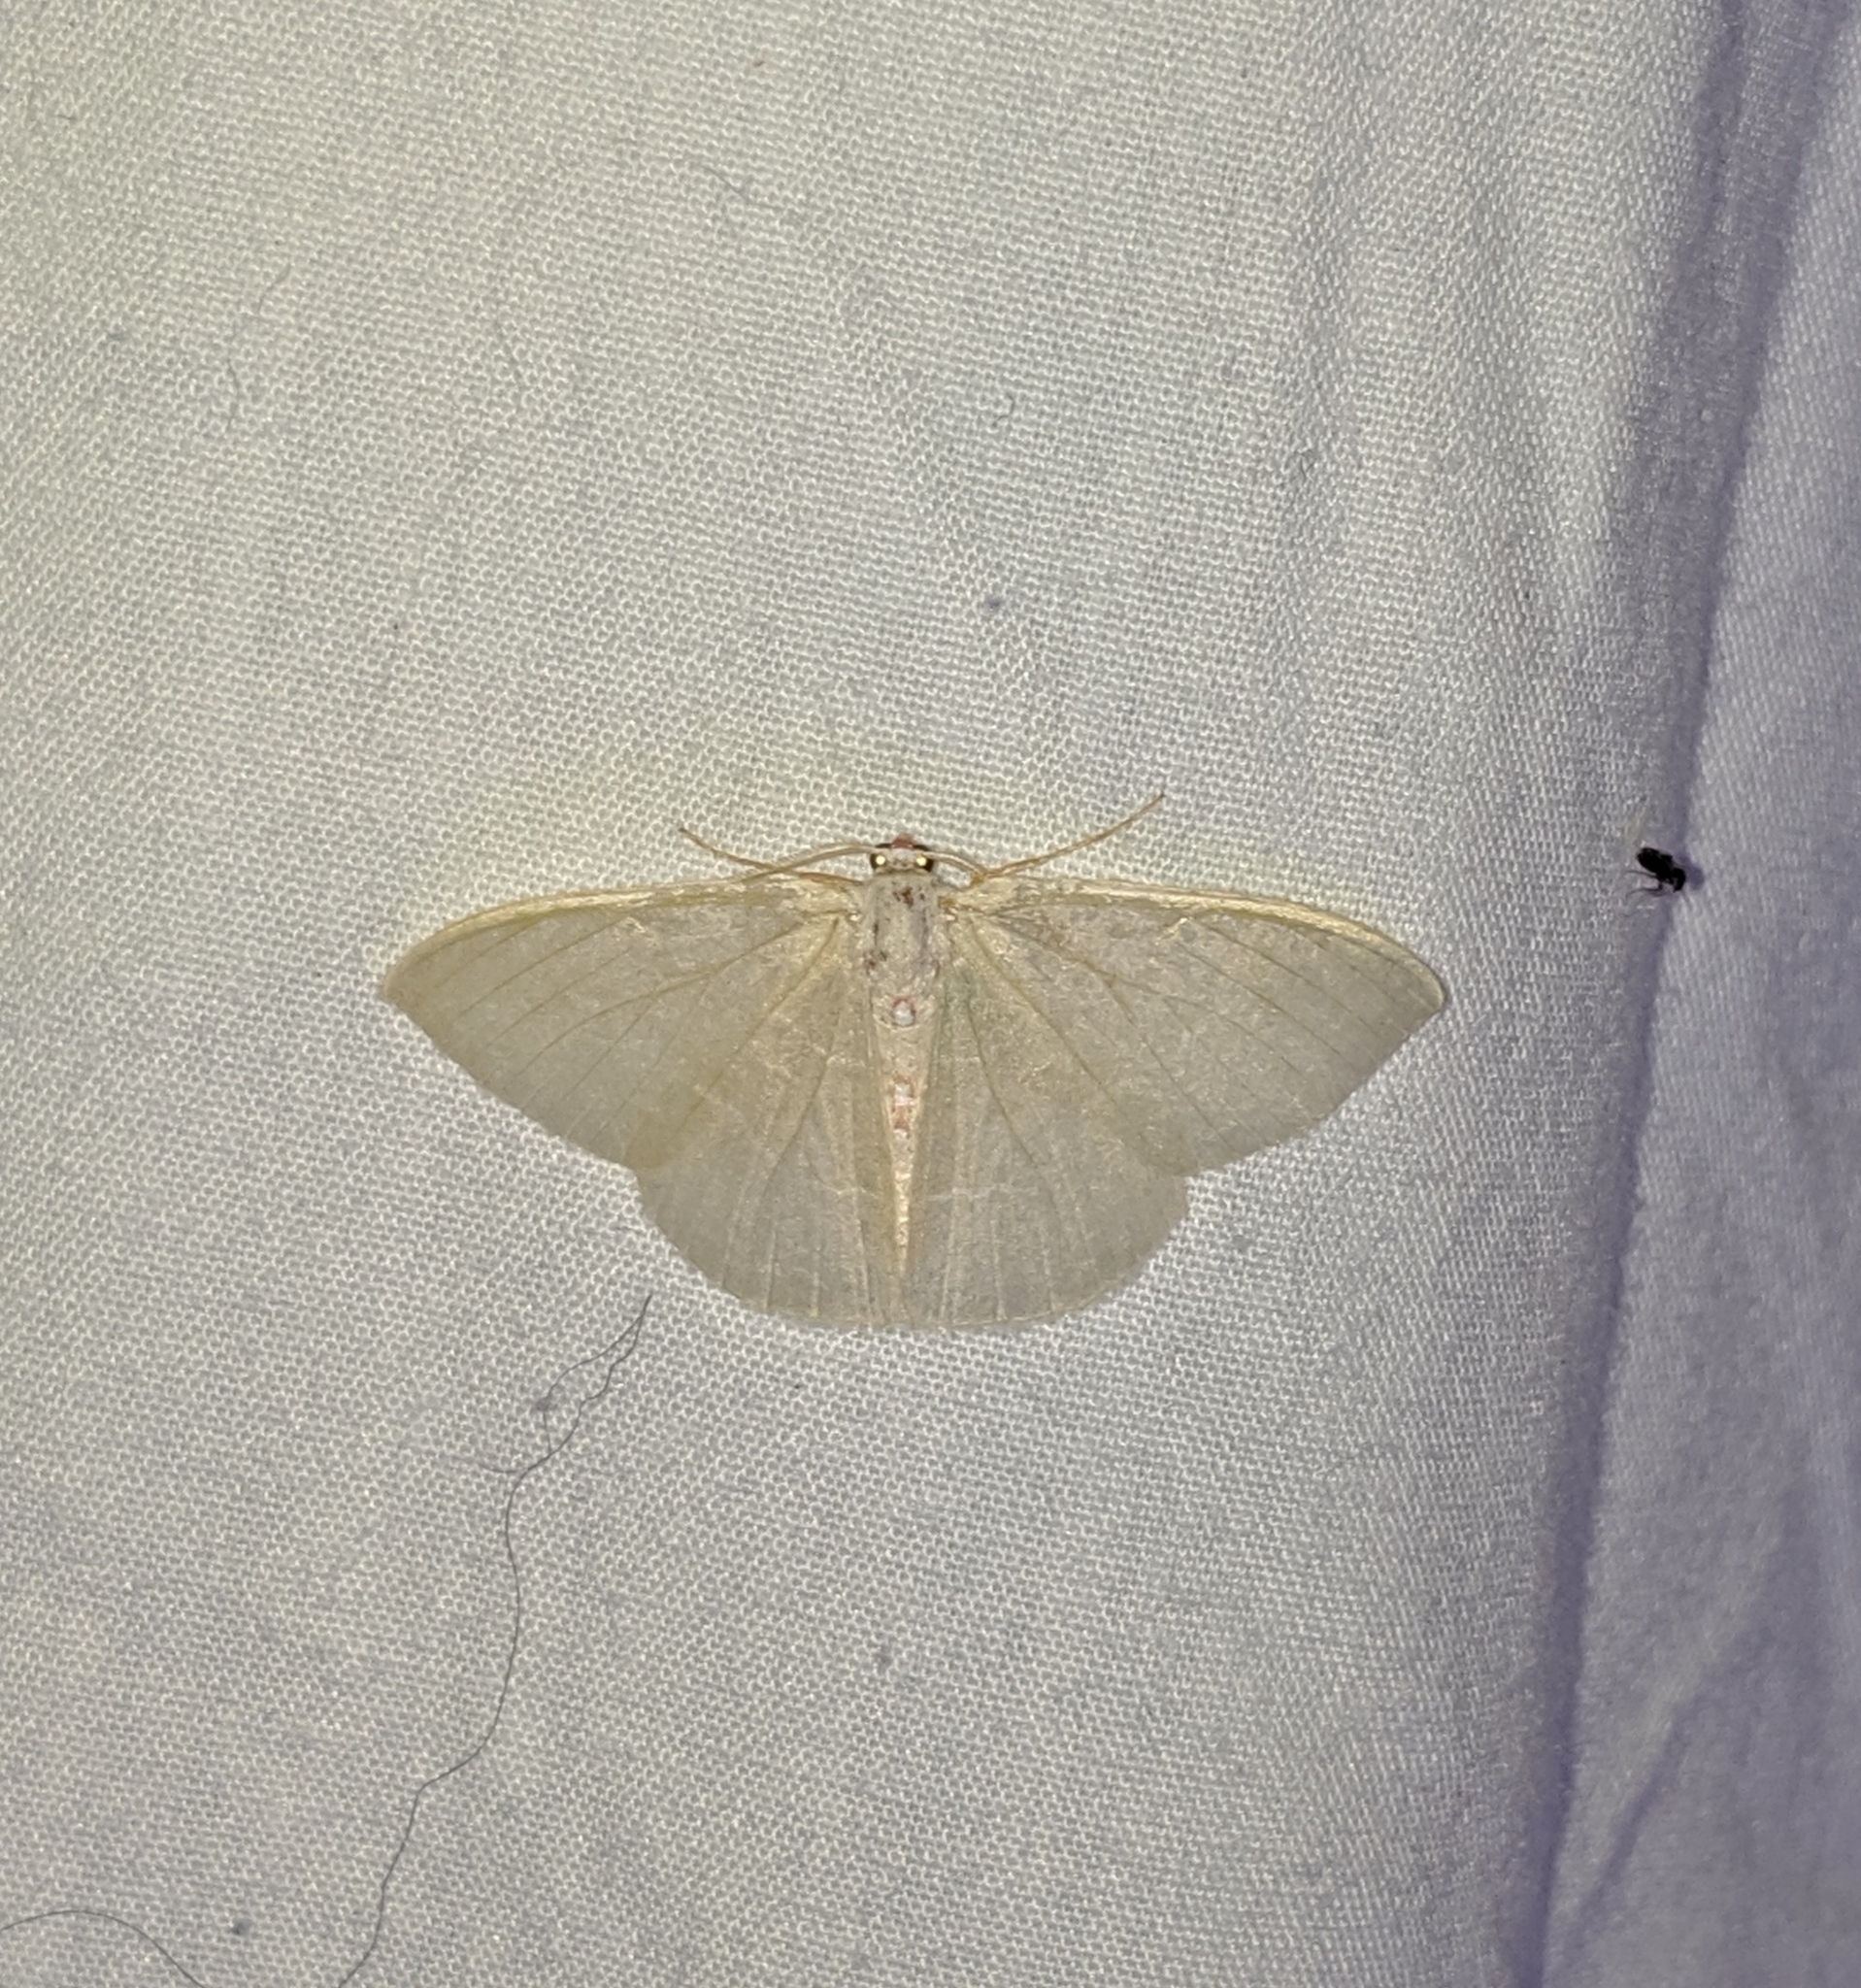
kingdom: Animalia
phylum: Arthropoda
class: Insecta
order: Lepidoptera
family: Geometridae
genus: Nemoria
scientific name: Nemoria darwiniata
